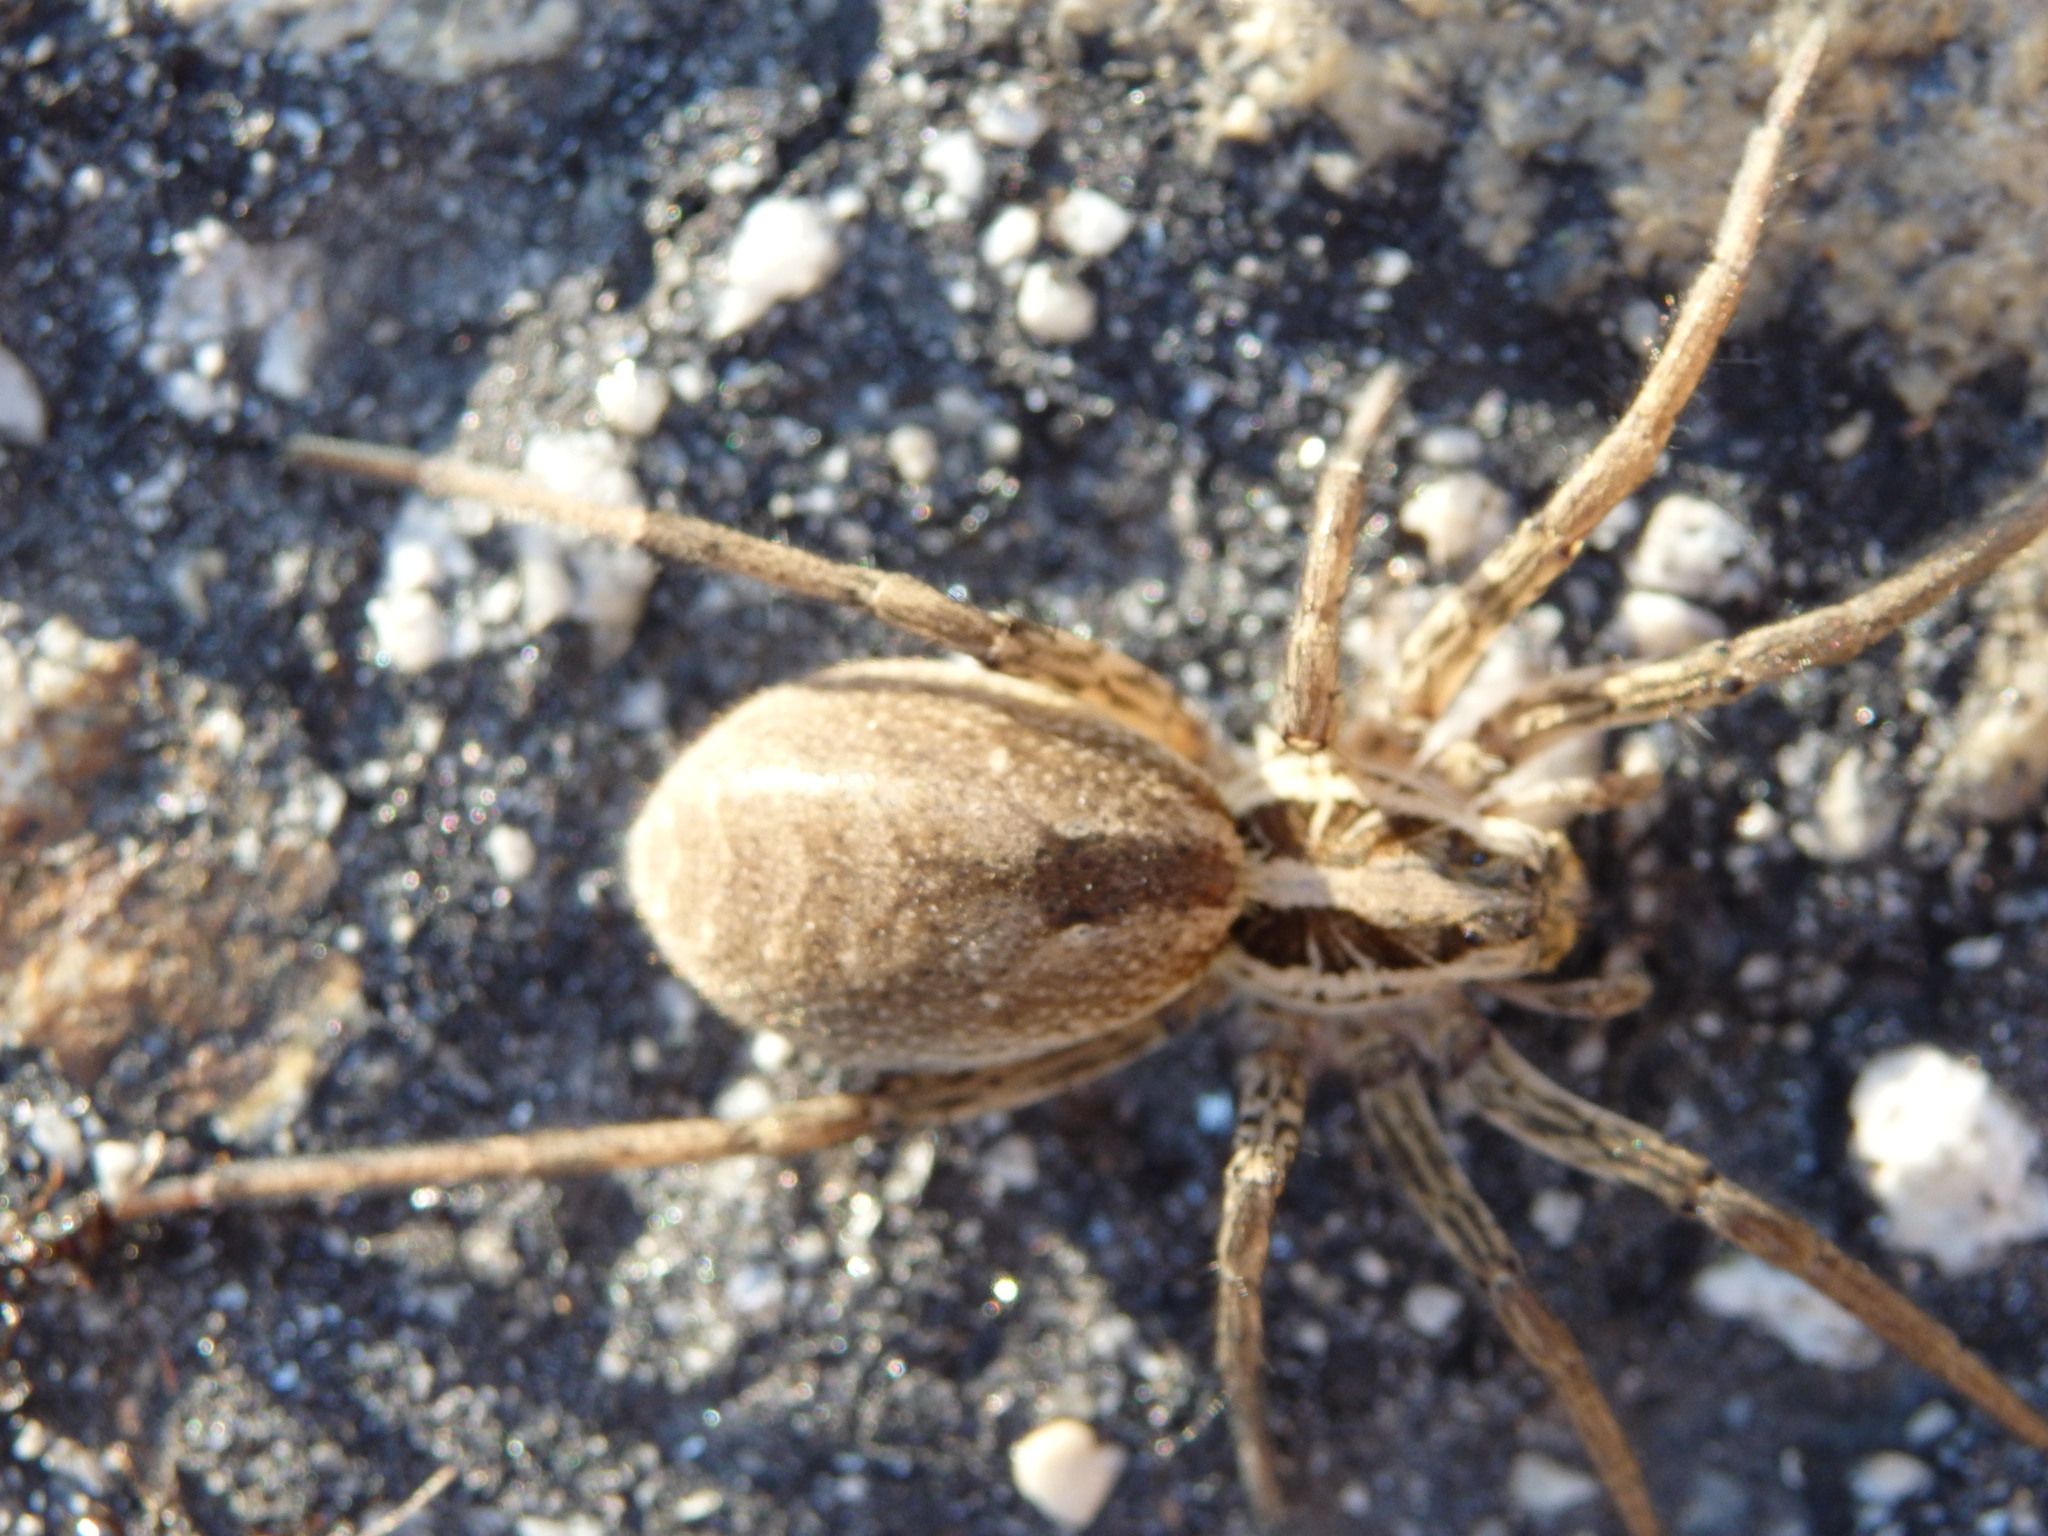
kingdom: Animalia
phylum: Arthropoda
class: Arachnida
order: Araneae
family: Lycosidae
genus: Hogna
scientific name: Hogna radiata
